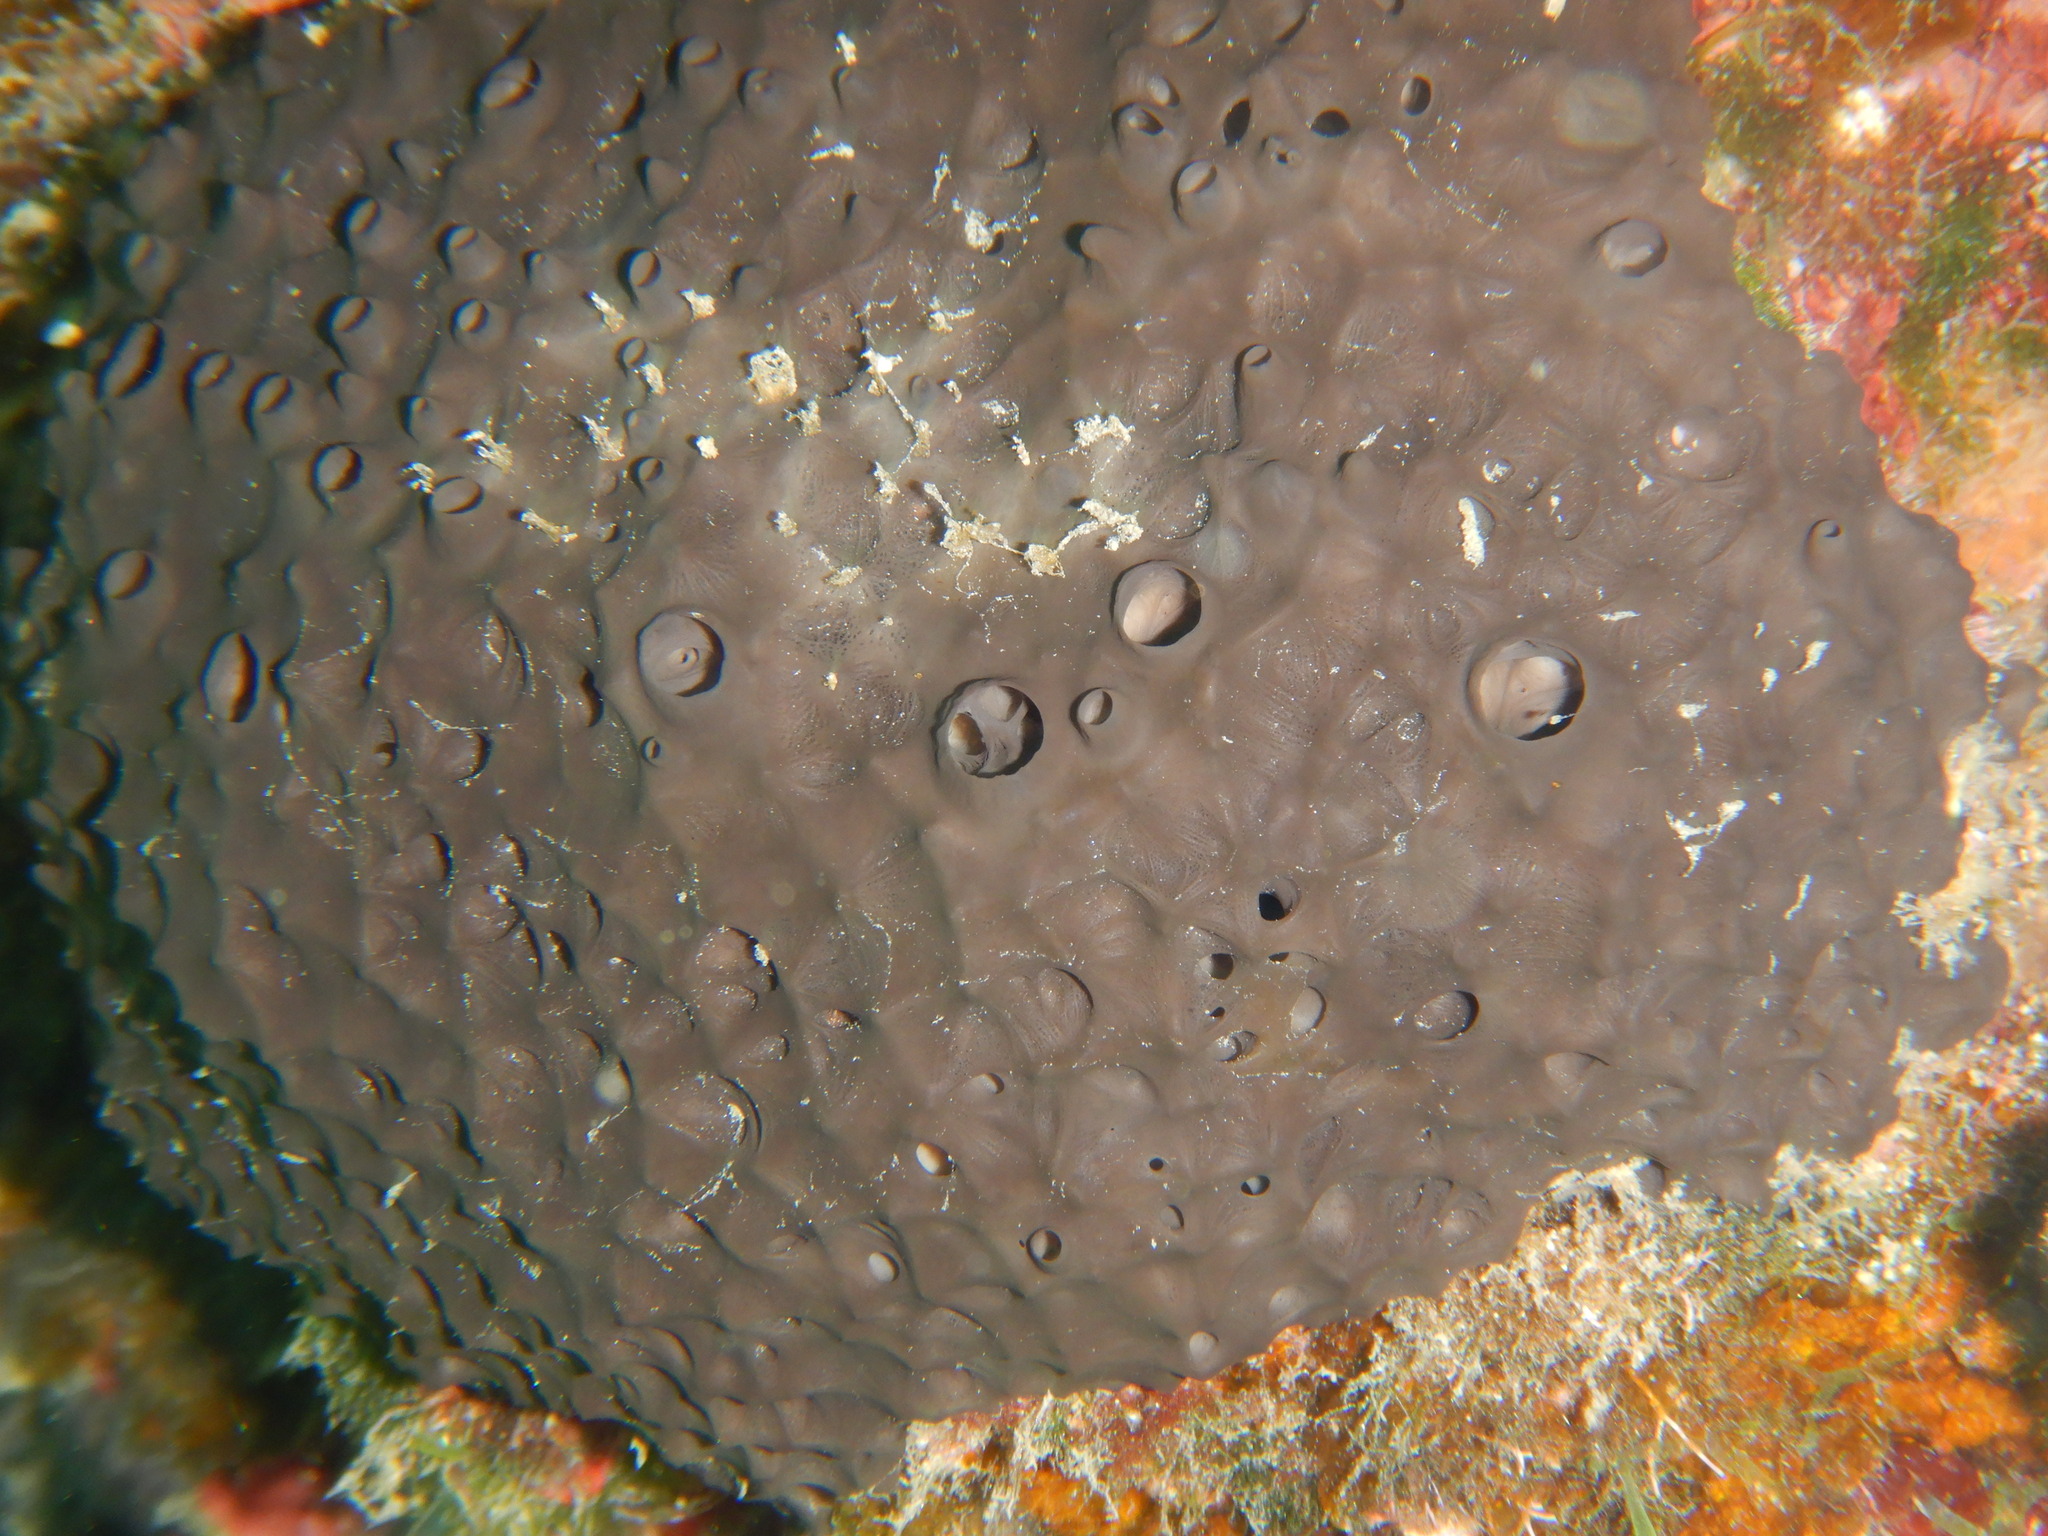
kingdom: Animalia
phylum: Porifera
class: Demospongiae
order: Dictyoceratida
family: Irciniidae
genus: Sarcotragus
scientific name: Sarcotragus spinosulus
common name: Black leather sponge
